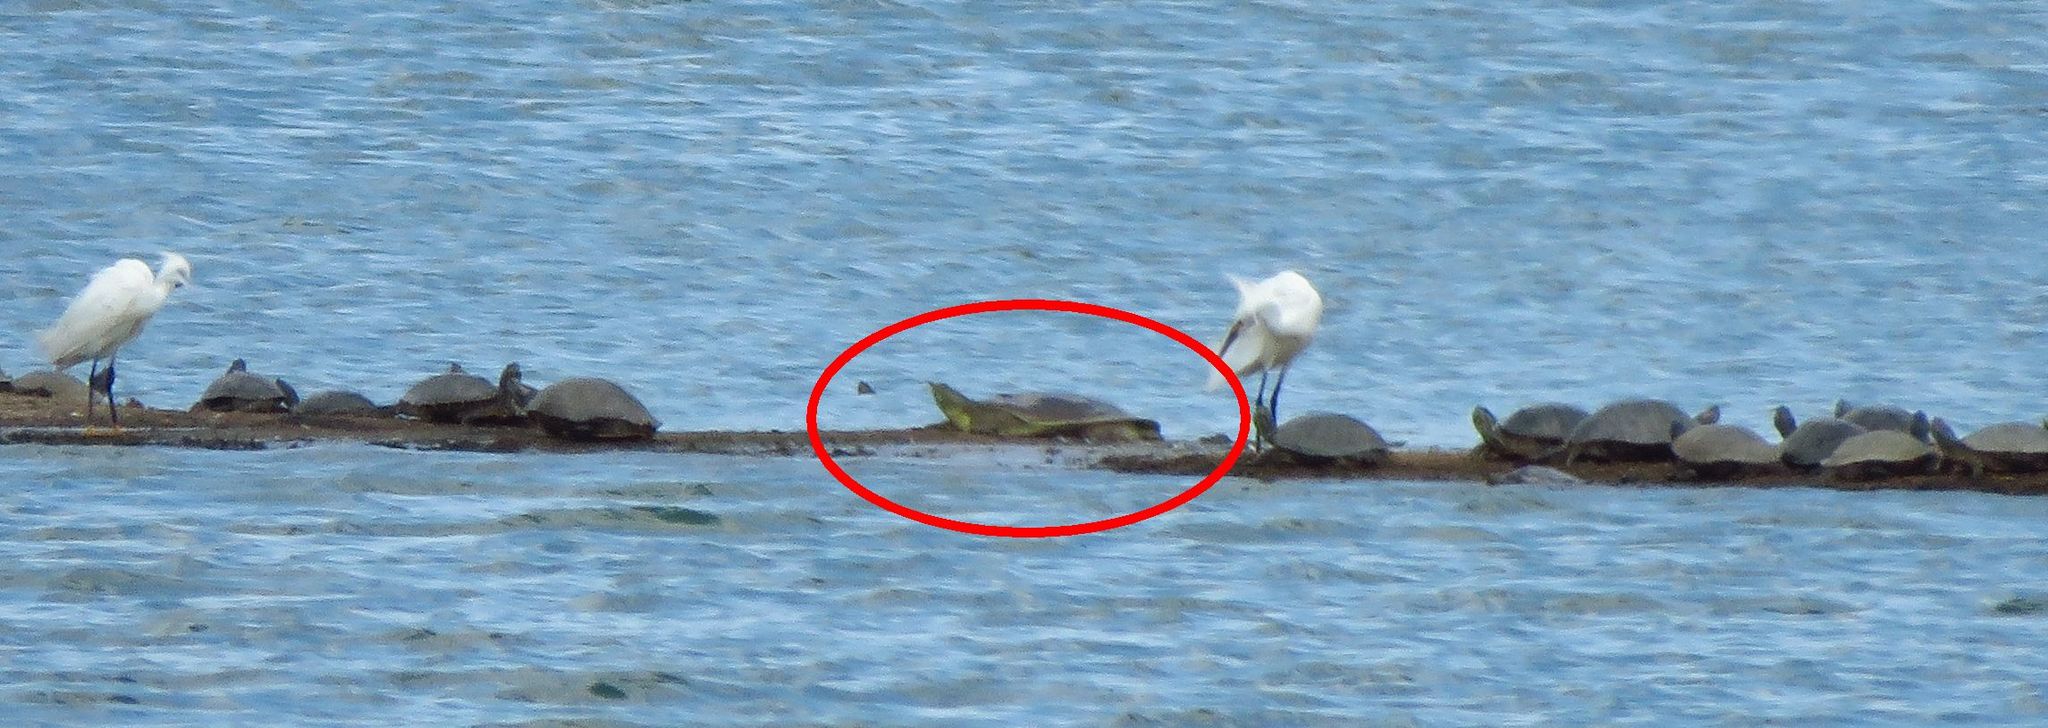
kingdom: Animalia
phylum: Chordata
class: Testudines
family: Trionychidae
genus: Apalone
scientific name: Apalone spinifera
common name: Spiny softshell turtle
